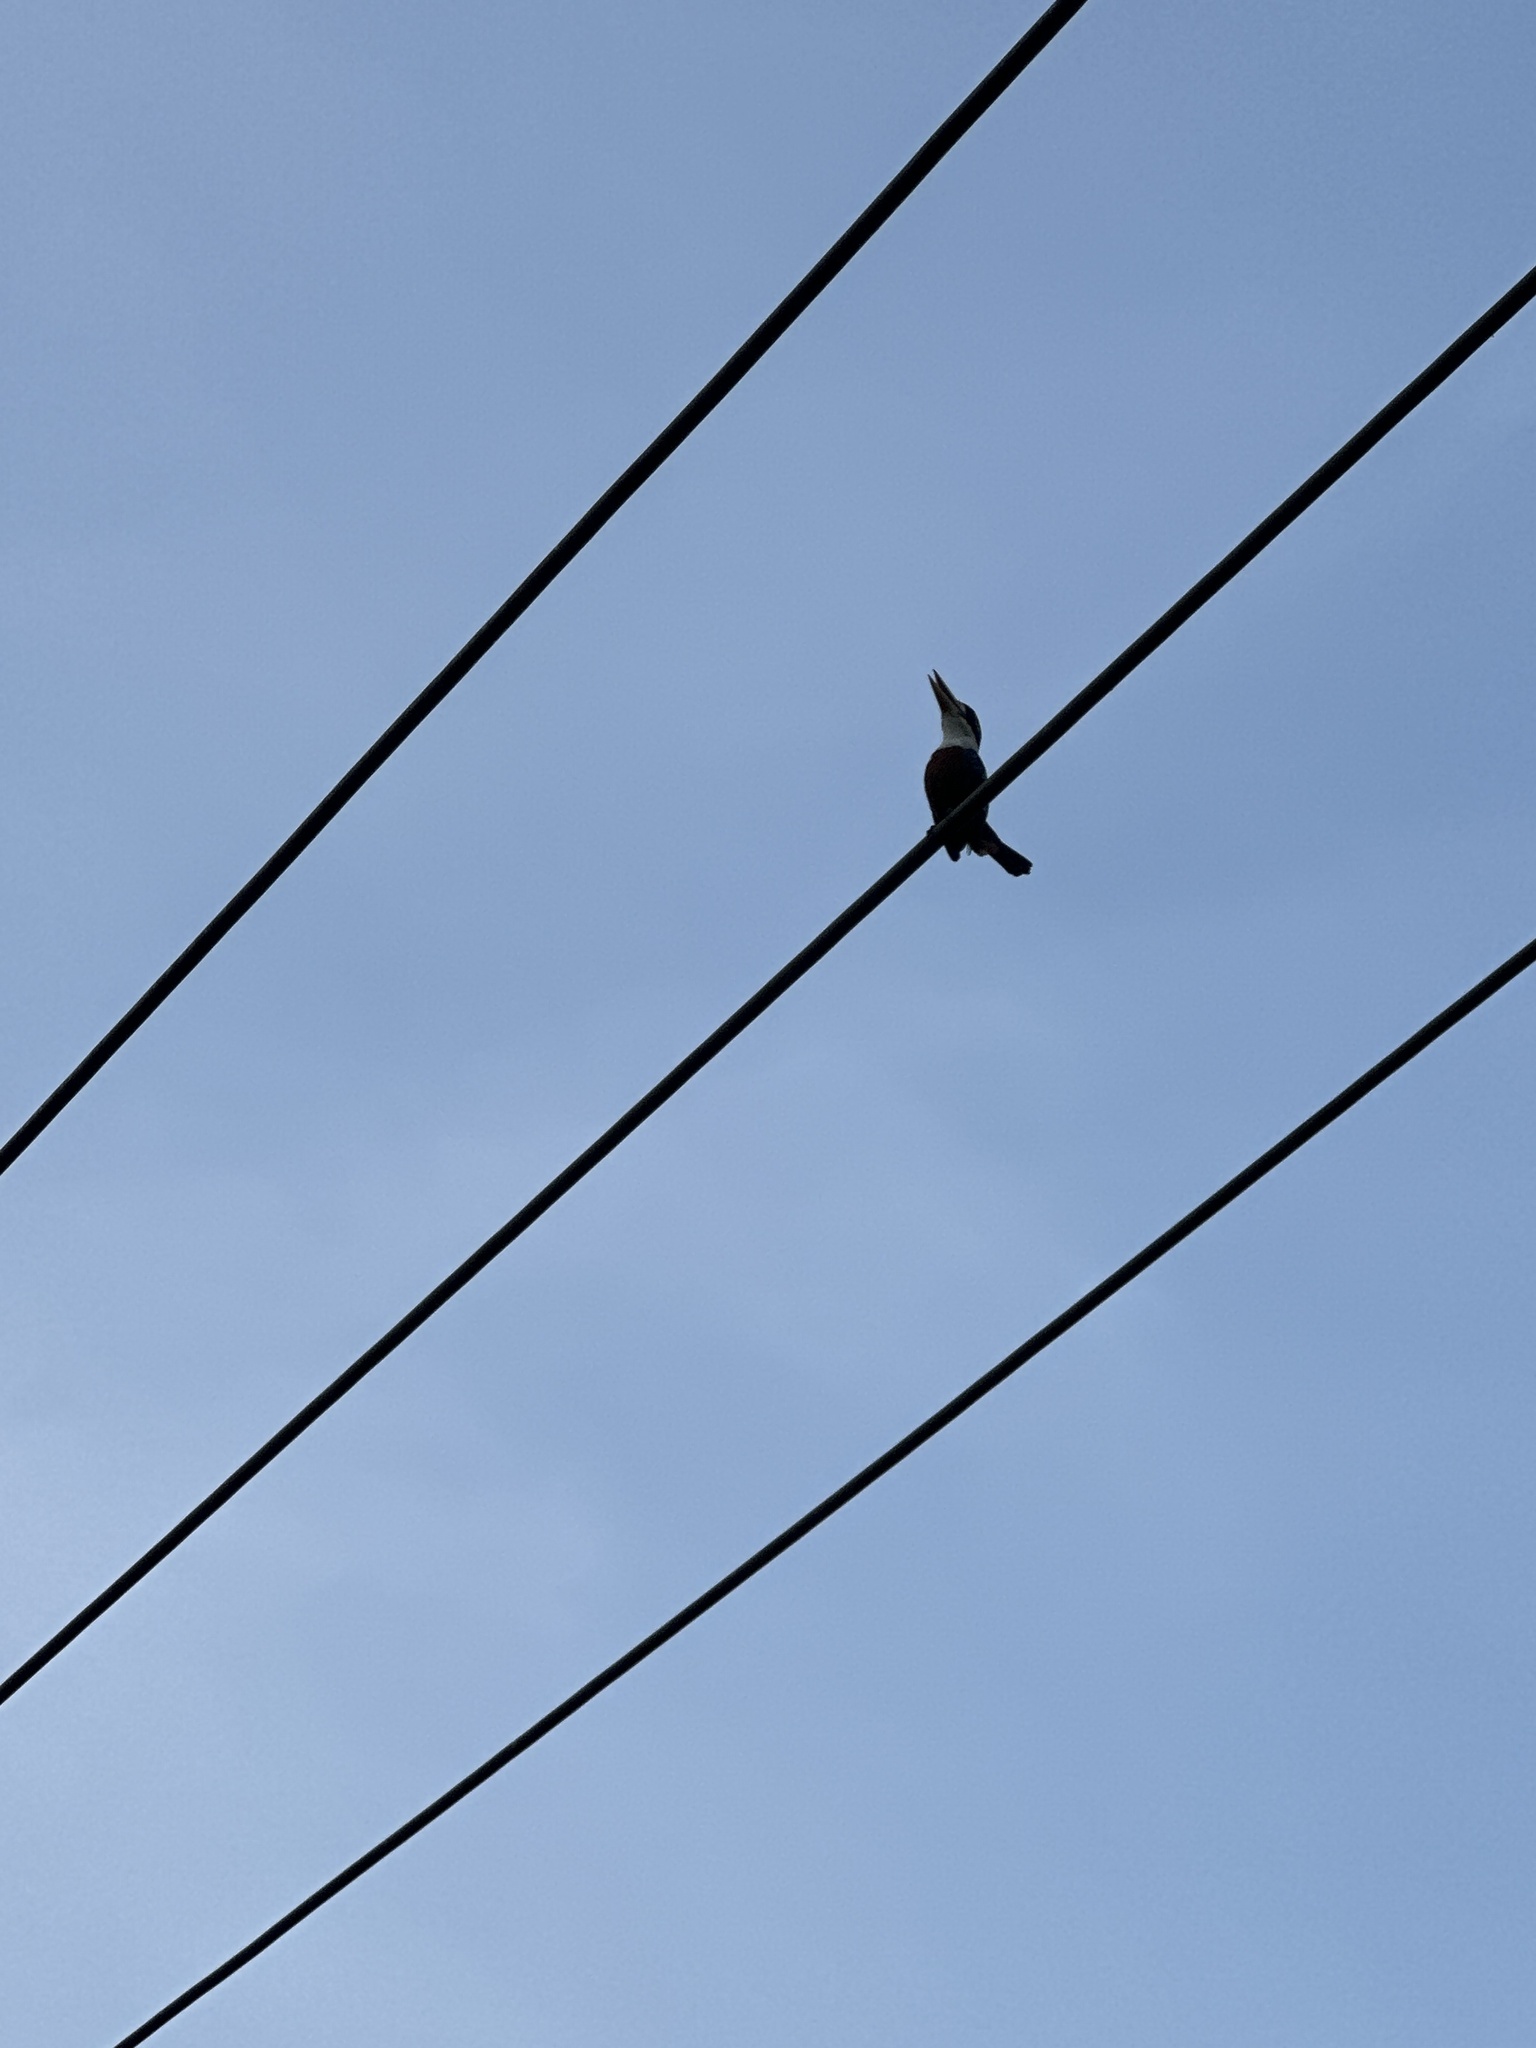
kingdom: Animalia
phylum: Chordata
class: Aves
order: Coraciiformes
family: Alcedinidae
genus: Dacelo
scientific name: Dacelo gaudichaud
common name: Rufous-bellied kookaburra
